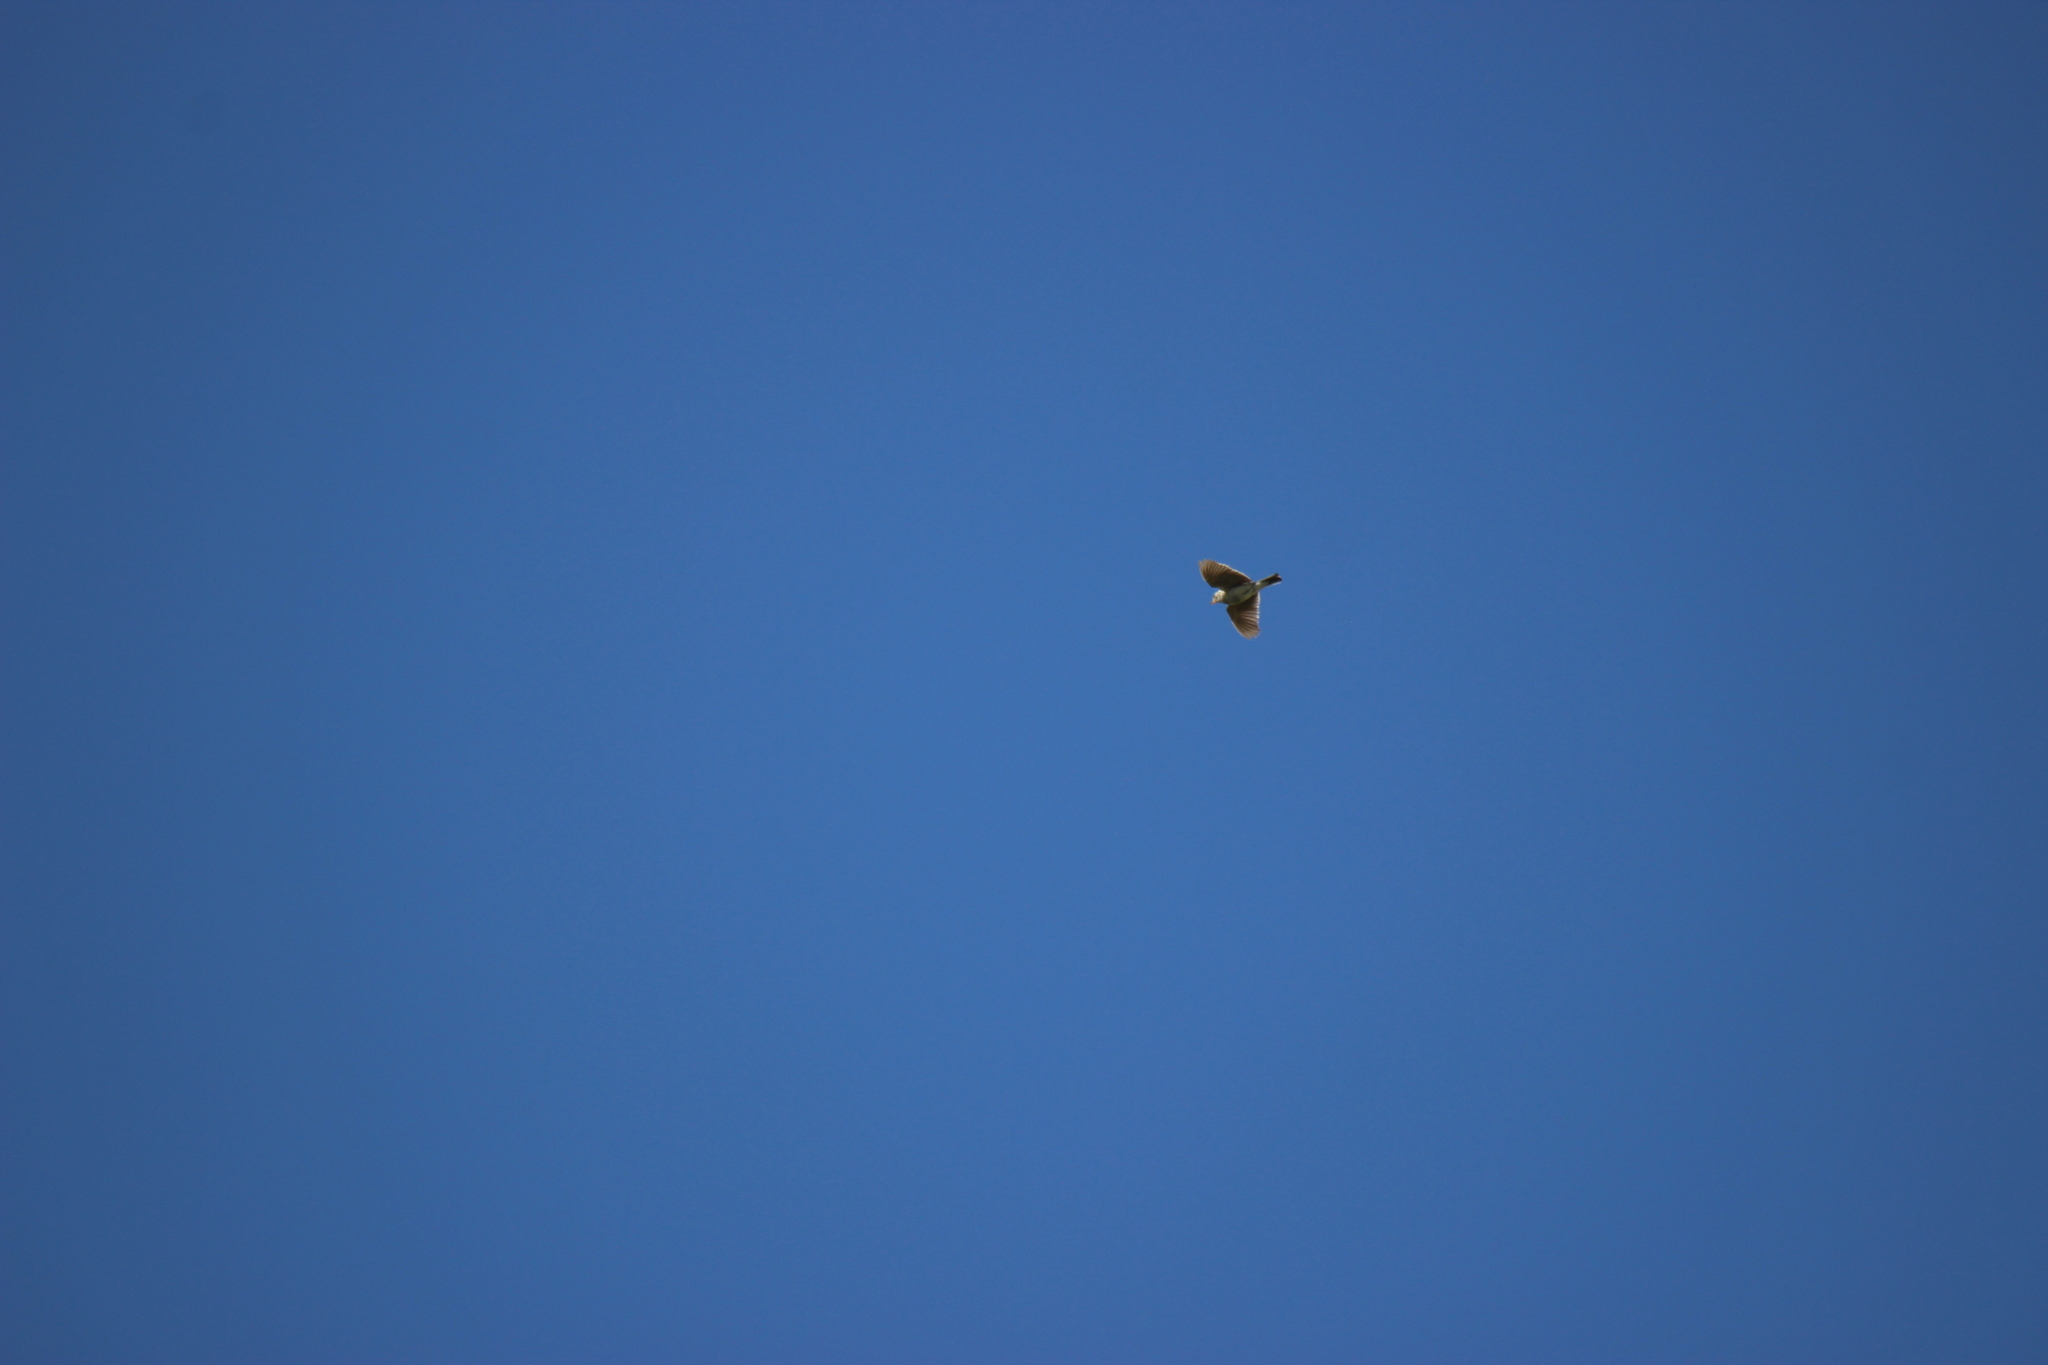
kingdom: Animalia
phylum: Chordata
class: Aves
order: Passeriformes
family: Alaudidae
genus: Alauda
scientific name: Alauda arvensis
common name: Eurasian skylark
